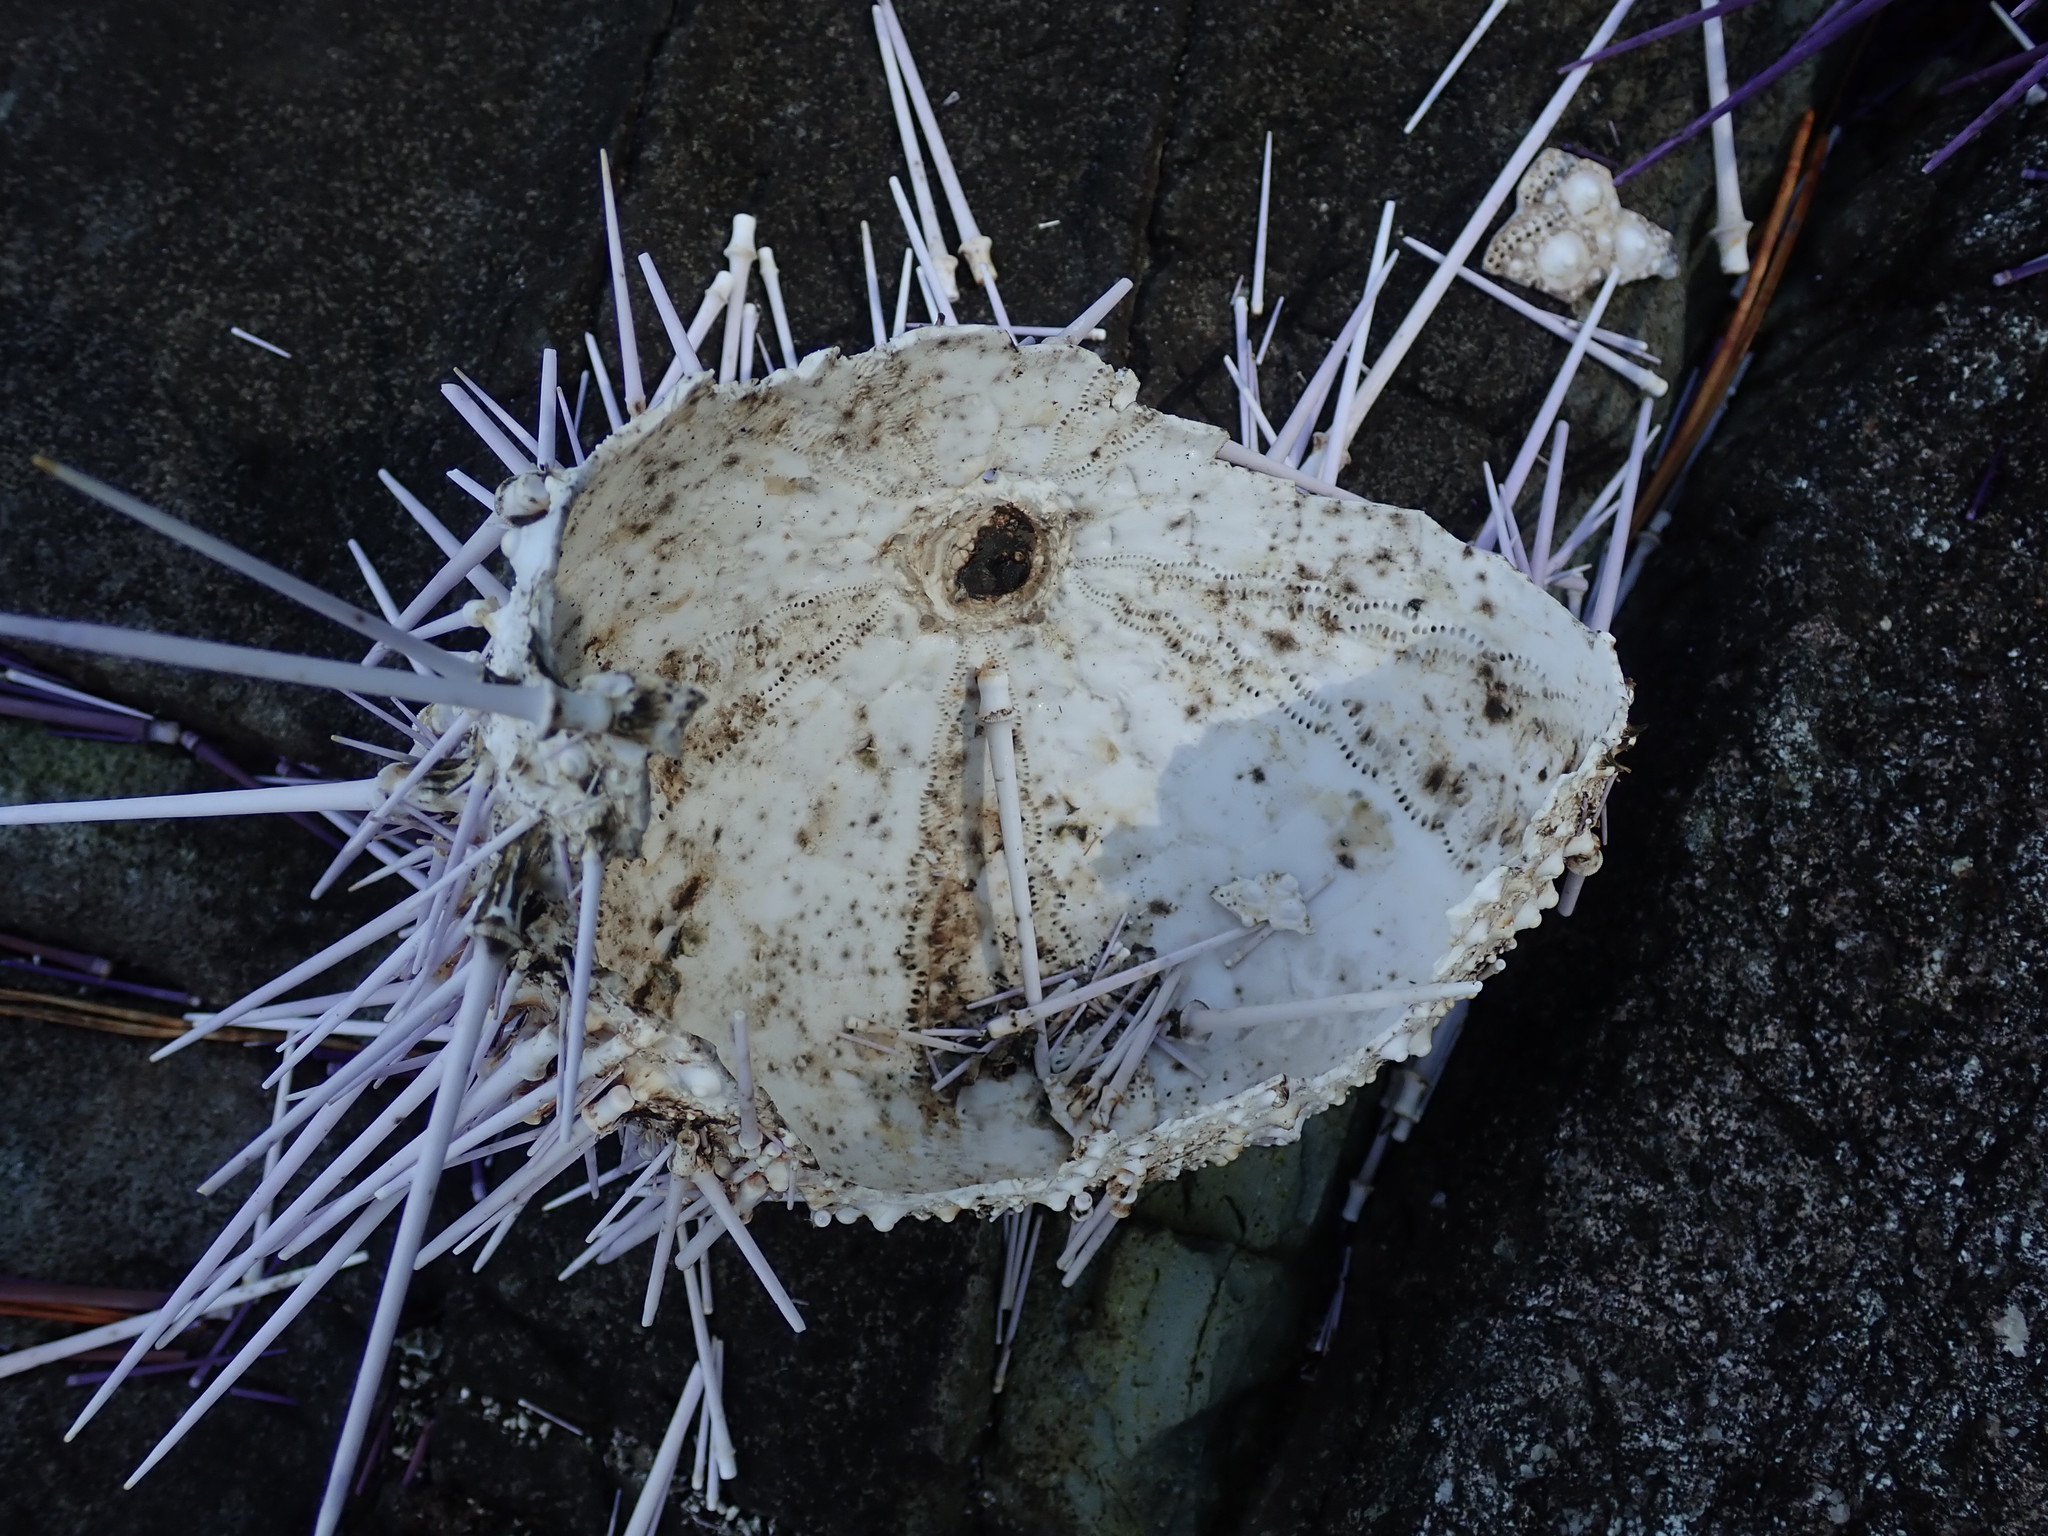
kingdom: Animalia
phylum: Echinodermata
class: Echinoidea
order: Camarodonta
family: Strongylocentrotidae
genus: Mesocentrotus
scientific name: Mesocentrotus franciscanus
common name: Red sea urchin
